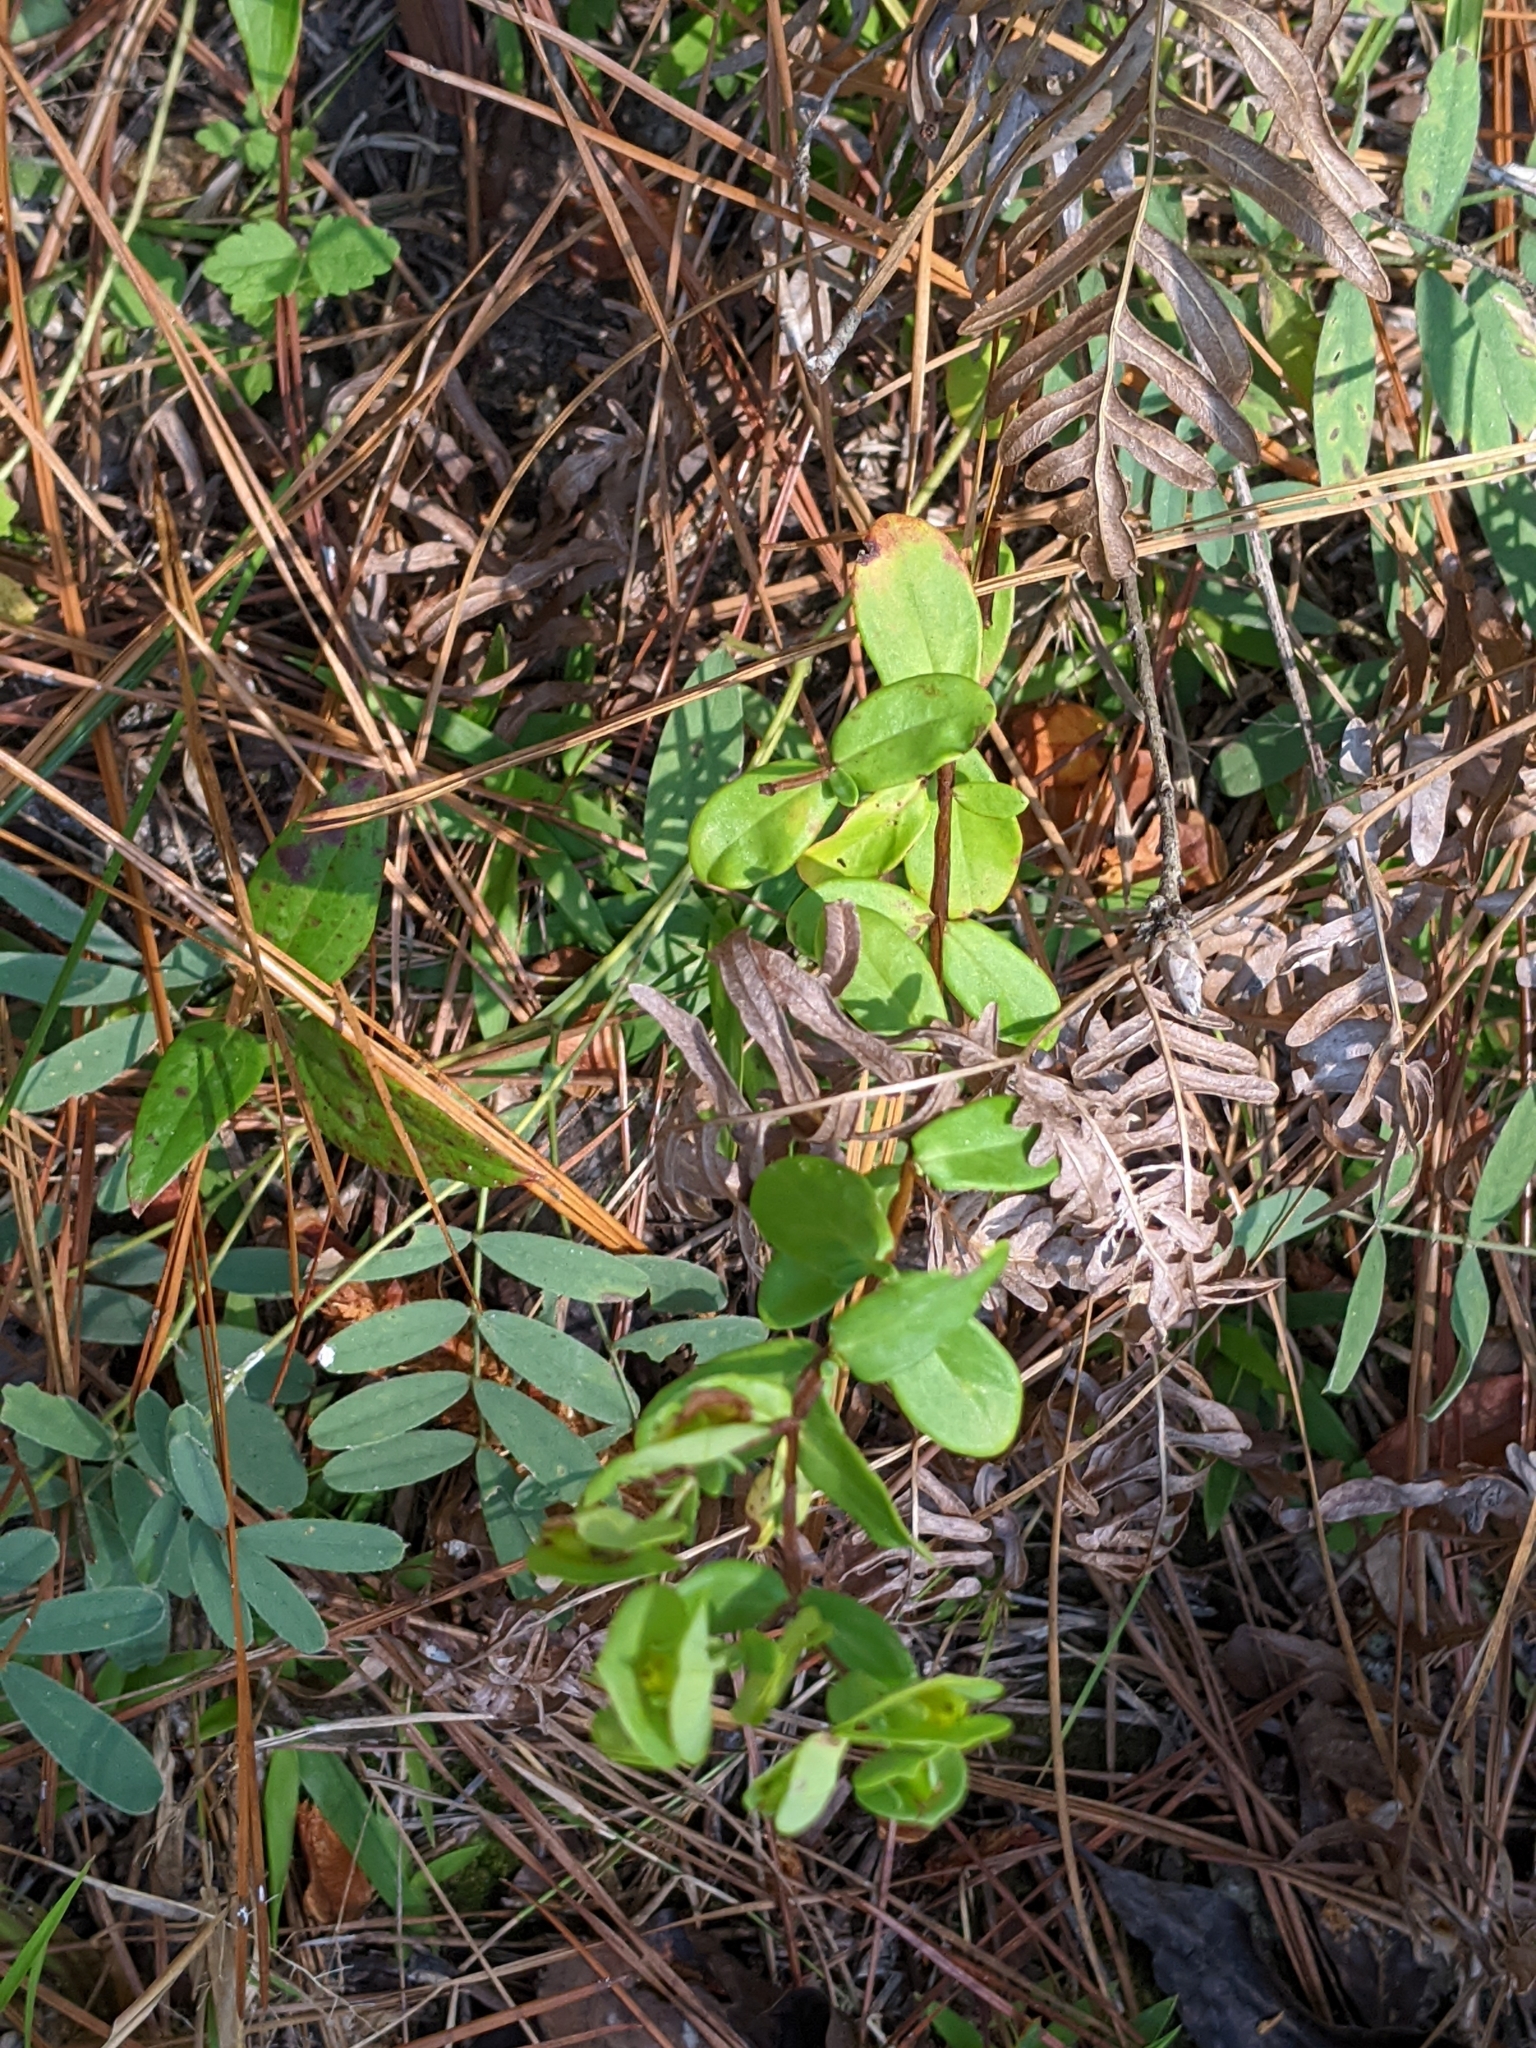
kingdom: Plantae
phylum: Tracheophyta
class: Magnoliopsida
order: Malpighiales
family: Hypericaceae
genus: Hypericum
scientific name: Hypericum crux-andreae
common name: St.-peter's-wort
